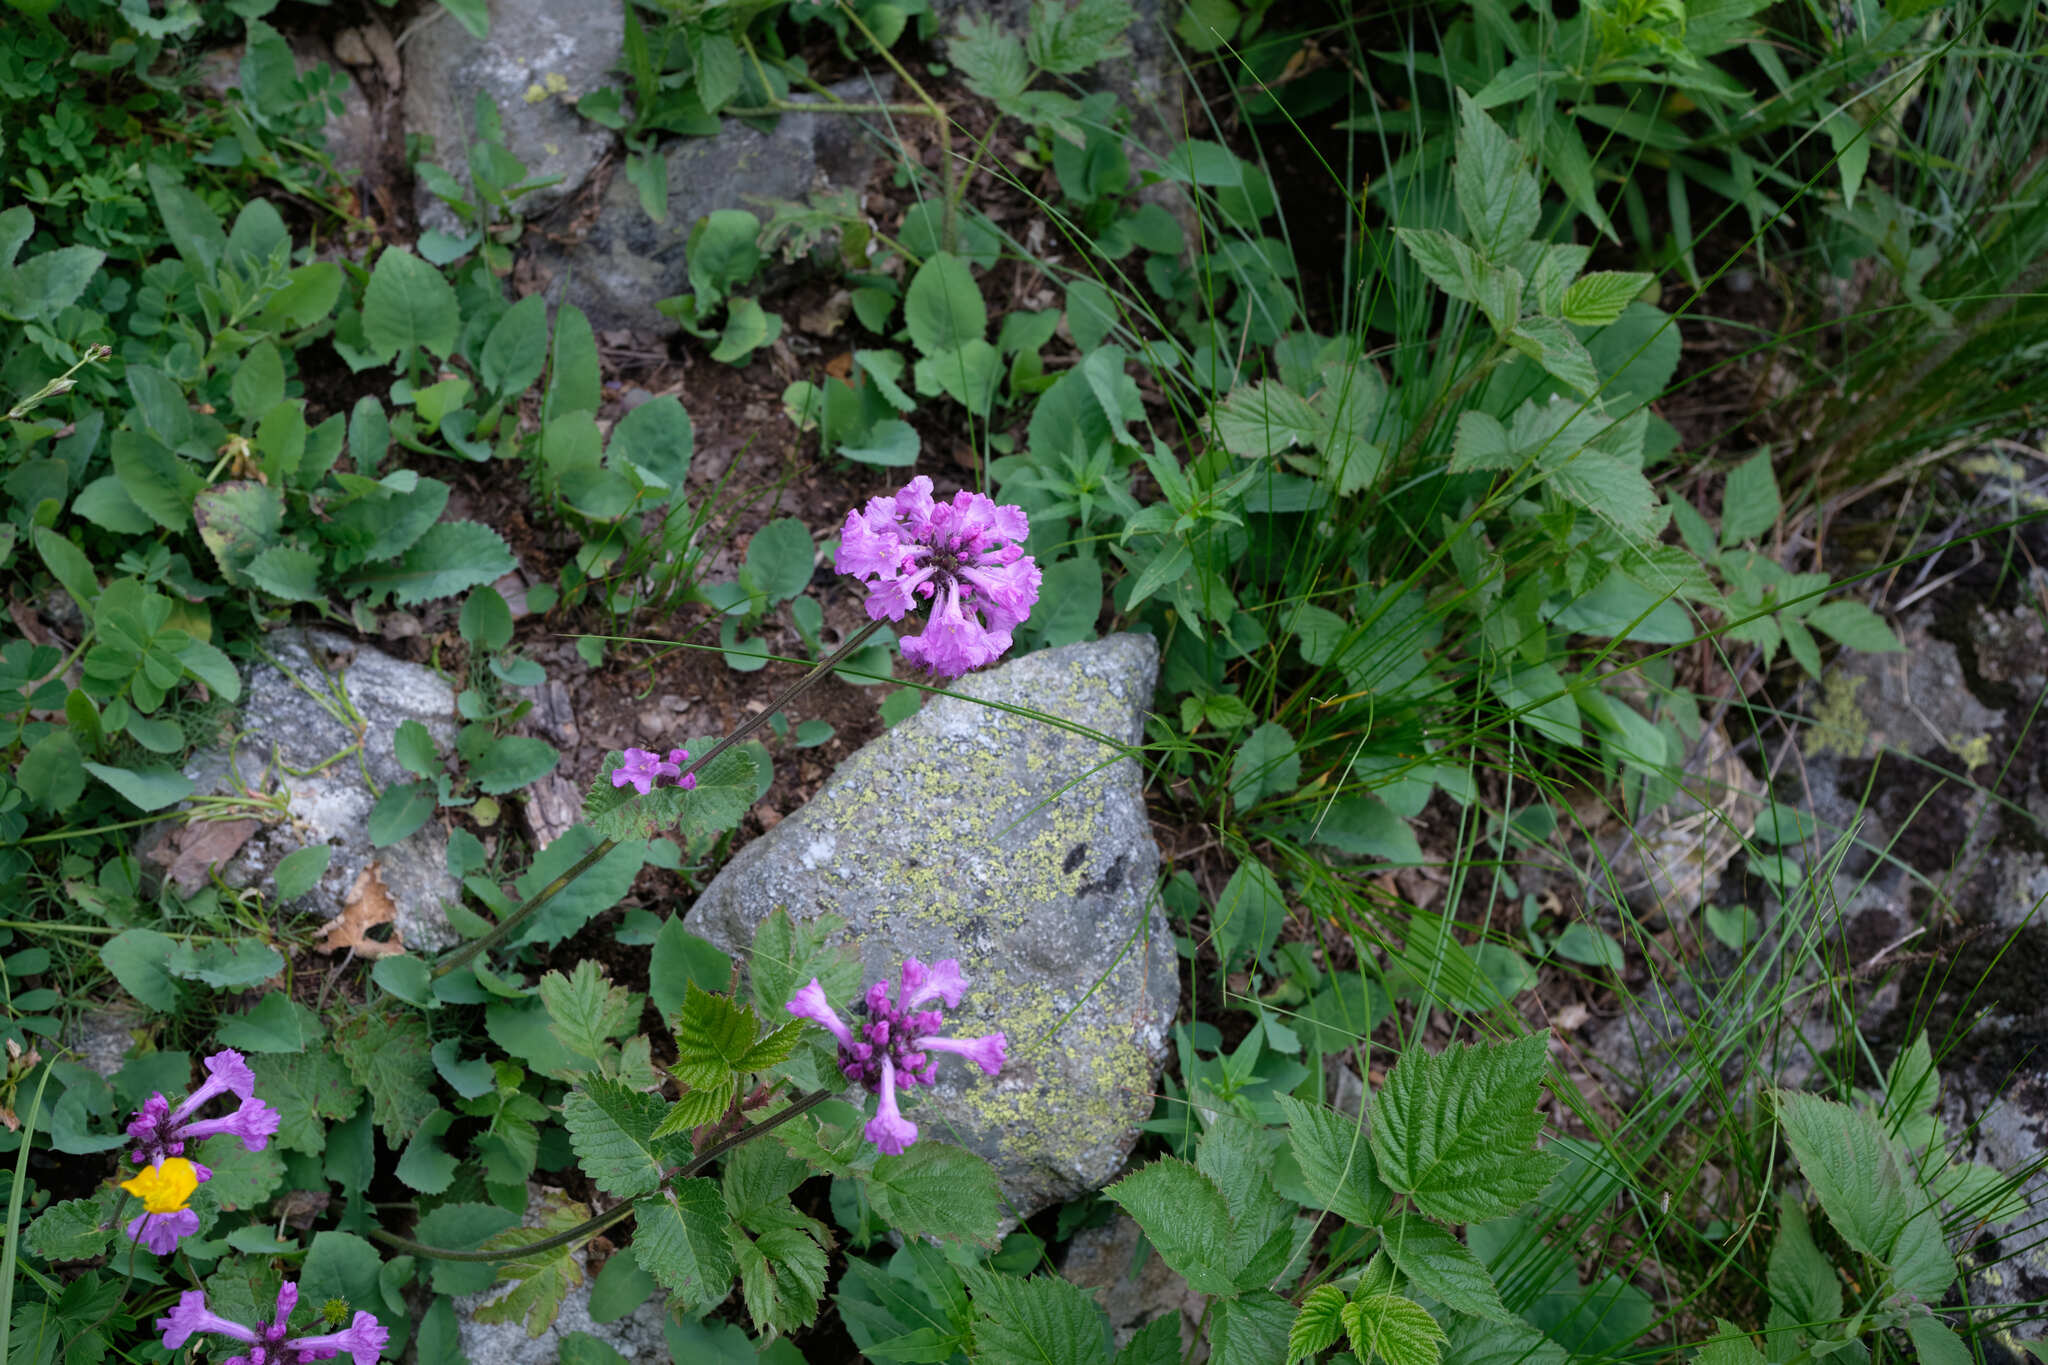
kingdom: Plantae
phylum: Tracheophyta
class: Magnoliopsida
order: Lamiales
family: Lamiaceae
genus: Betonica
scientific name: Betonica macrantha
